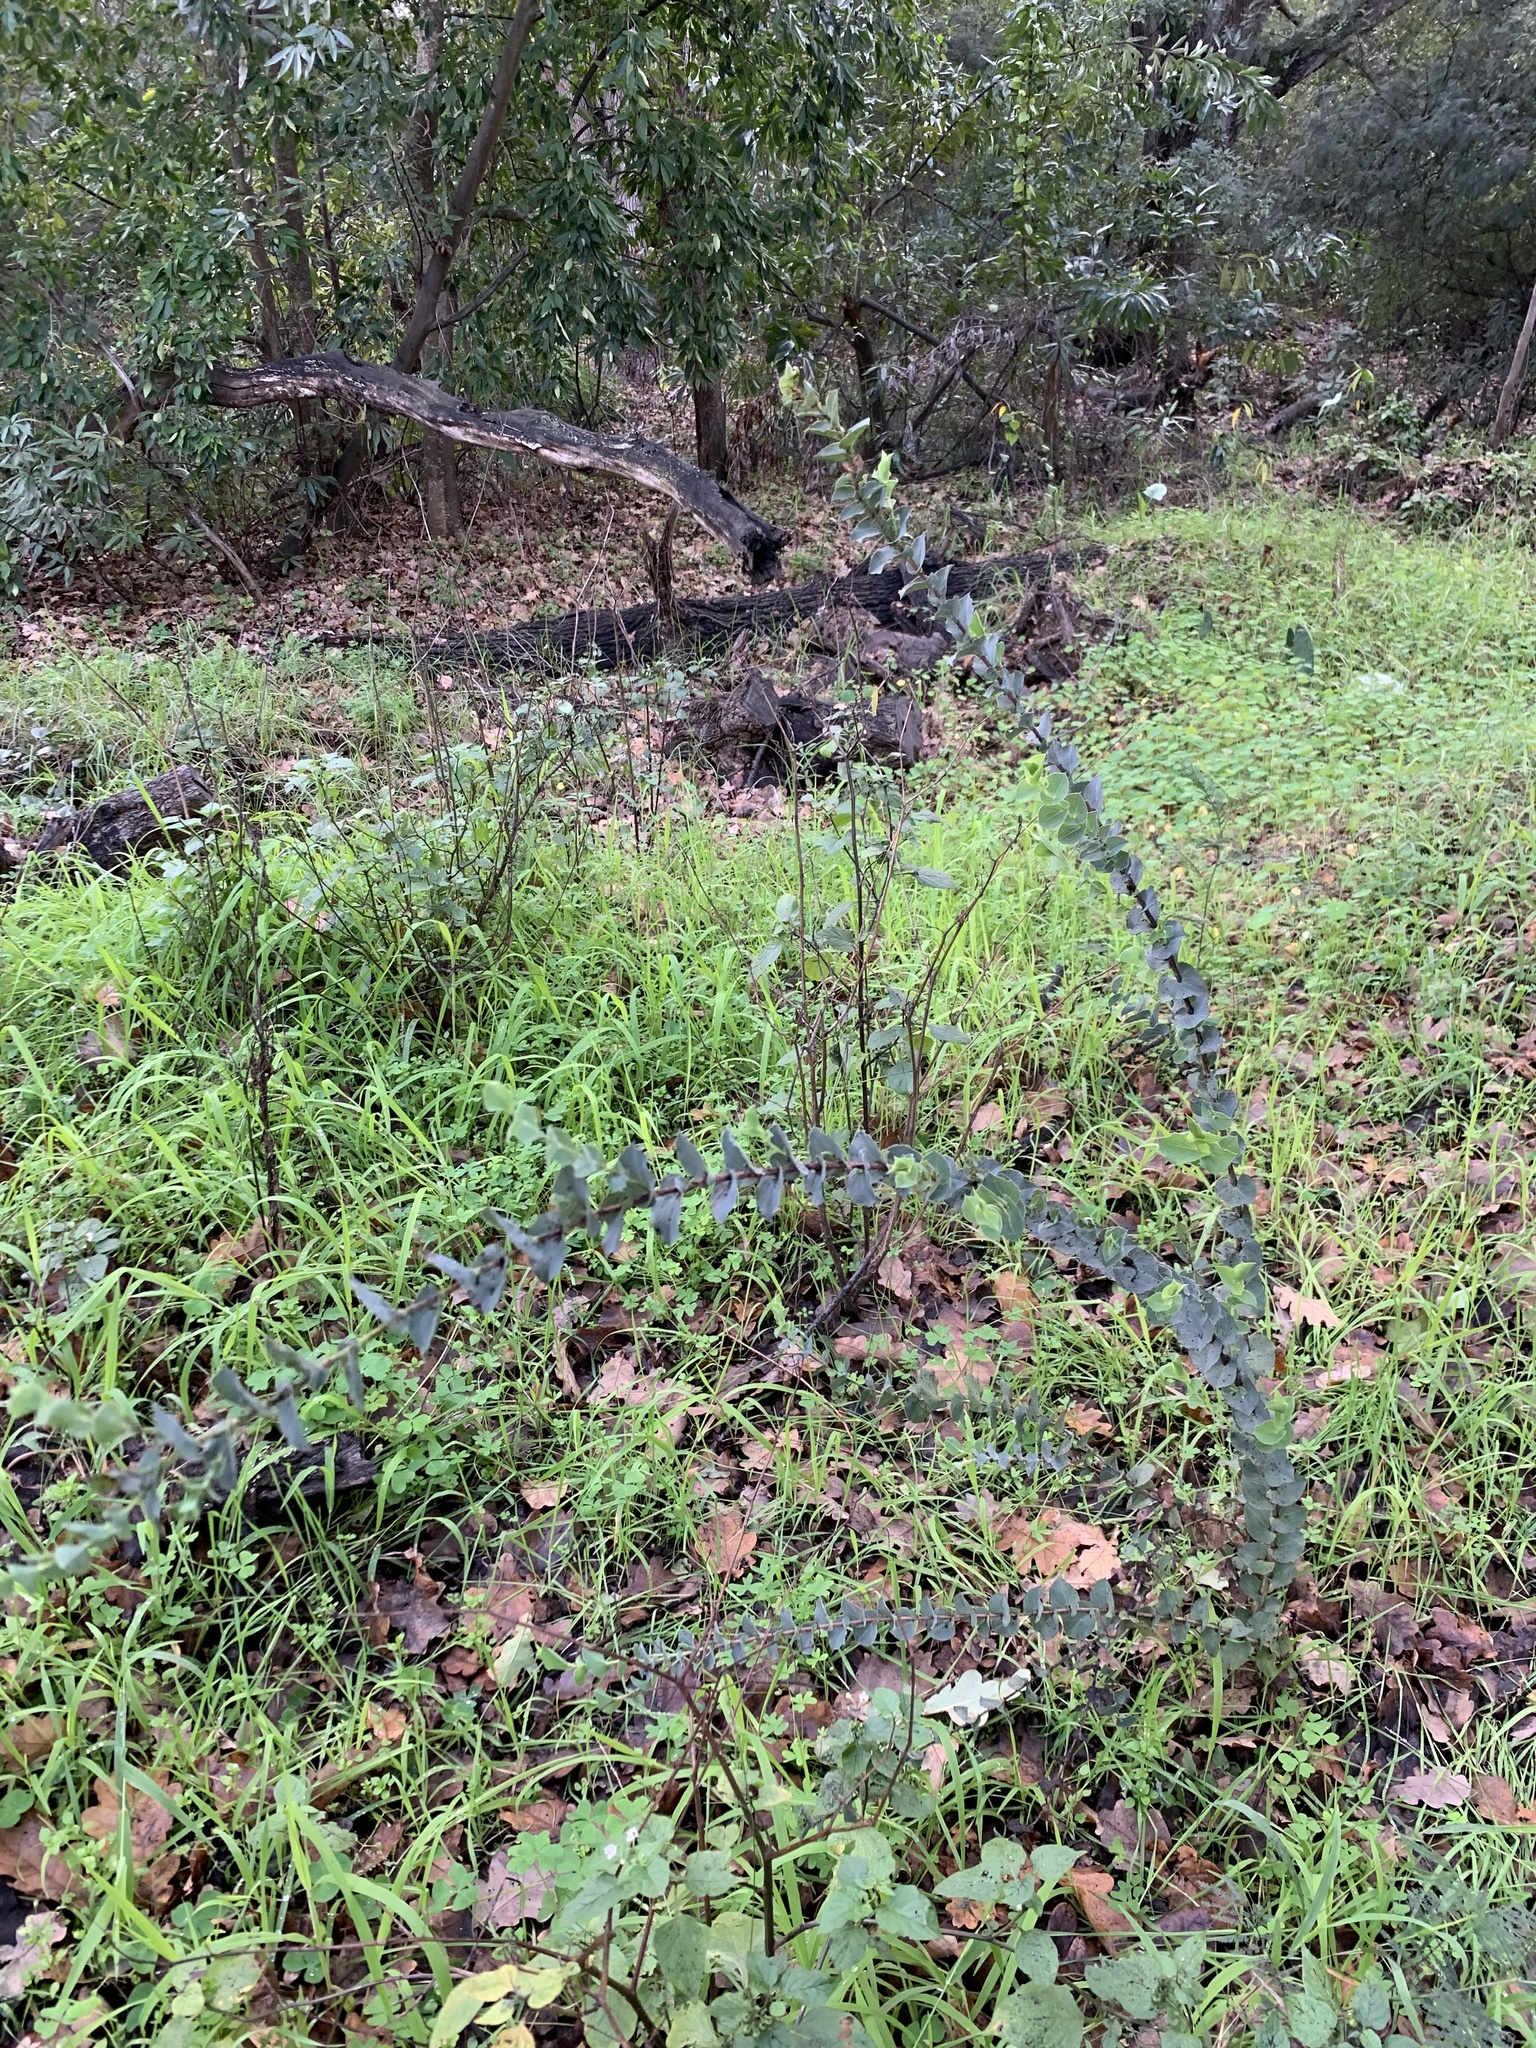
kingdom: Plantae
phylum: Tracheophyta
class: Magnoliopsida
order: Fabales
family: Fabaceae
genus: Aspalathus
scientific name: Aspalathus perfoliata
